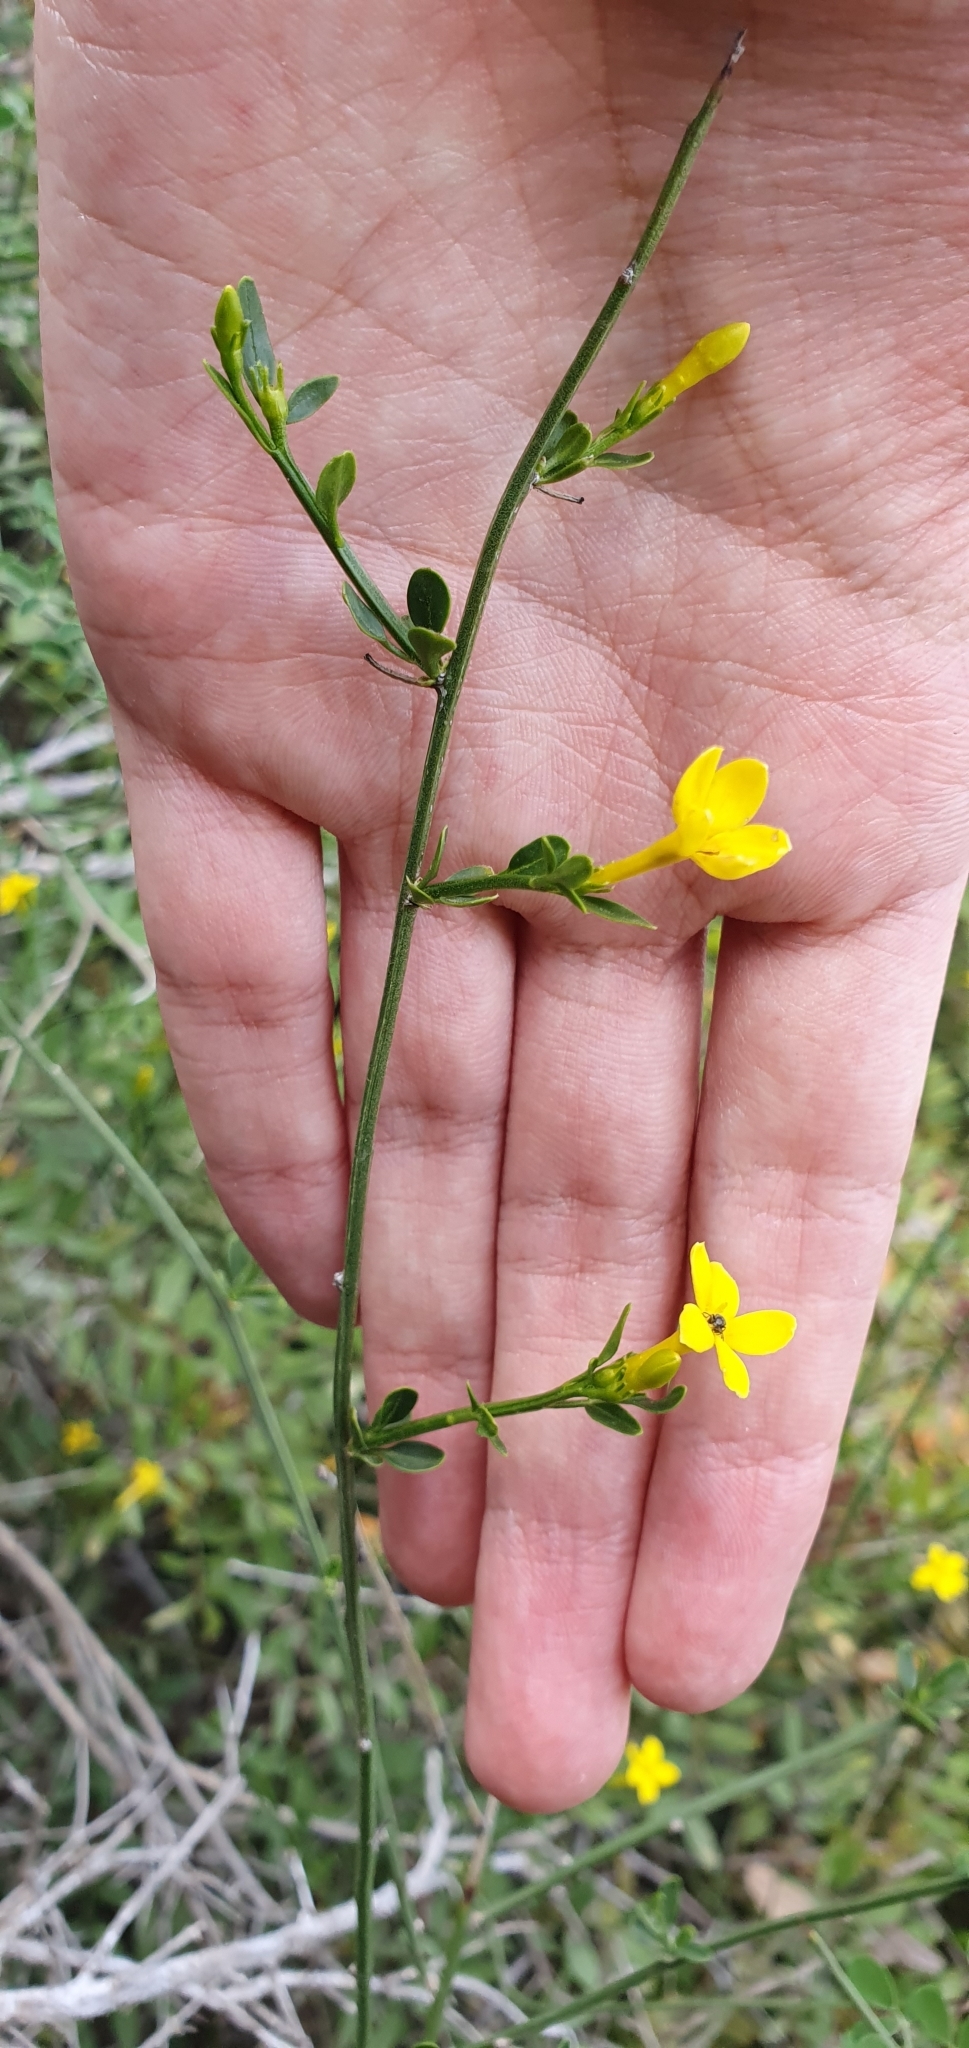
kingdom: Plantae
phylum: Tracheophyta
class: Magnoliopsida
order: Lamiales
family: Oleaceae
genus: Chrysojasminum
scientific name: Chrysojasminum fruticans
